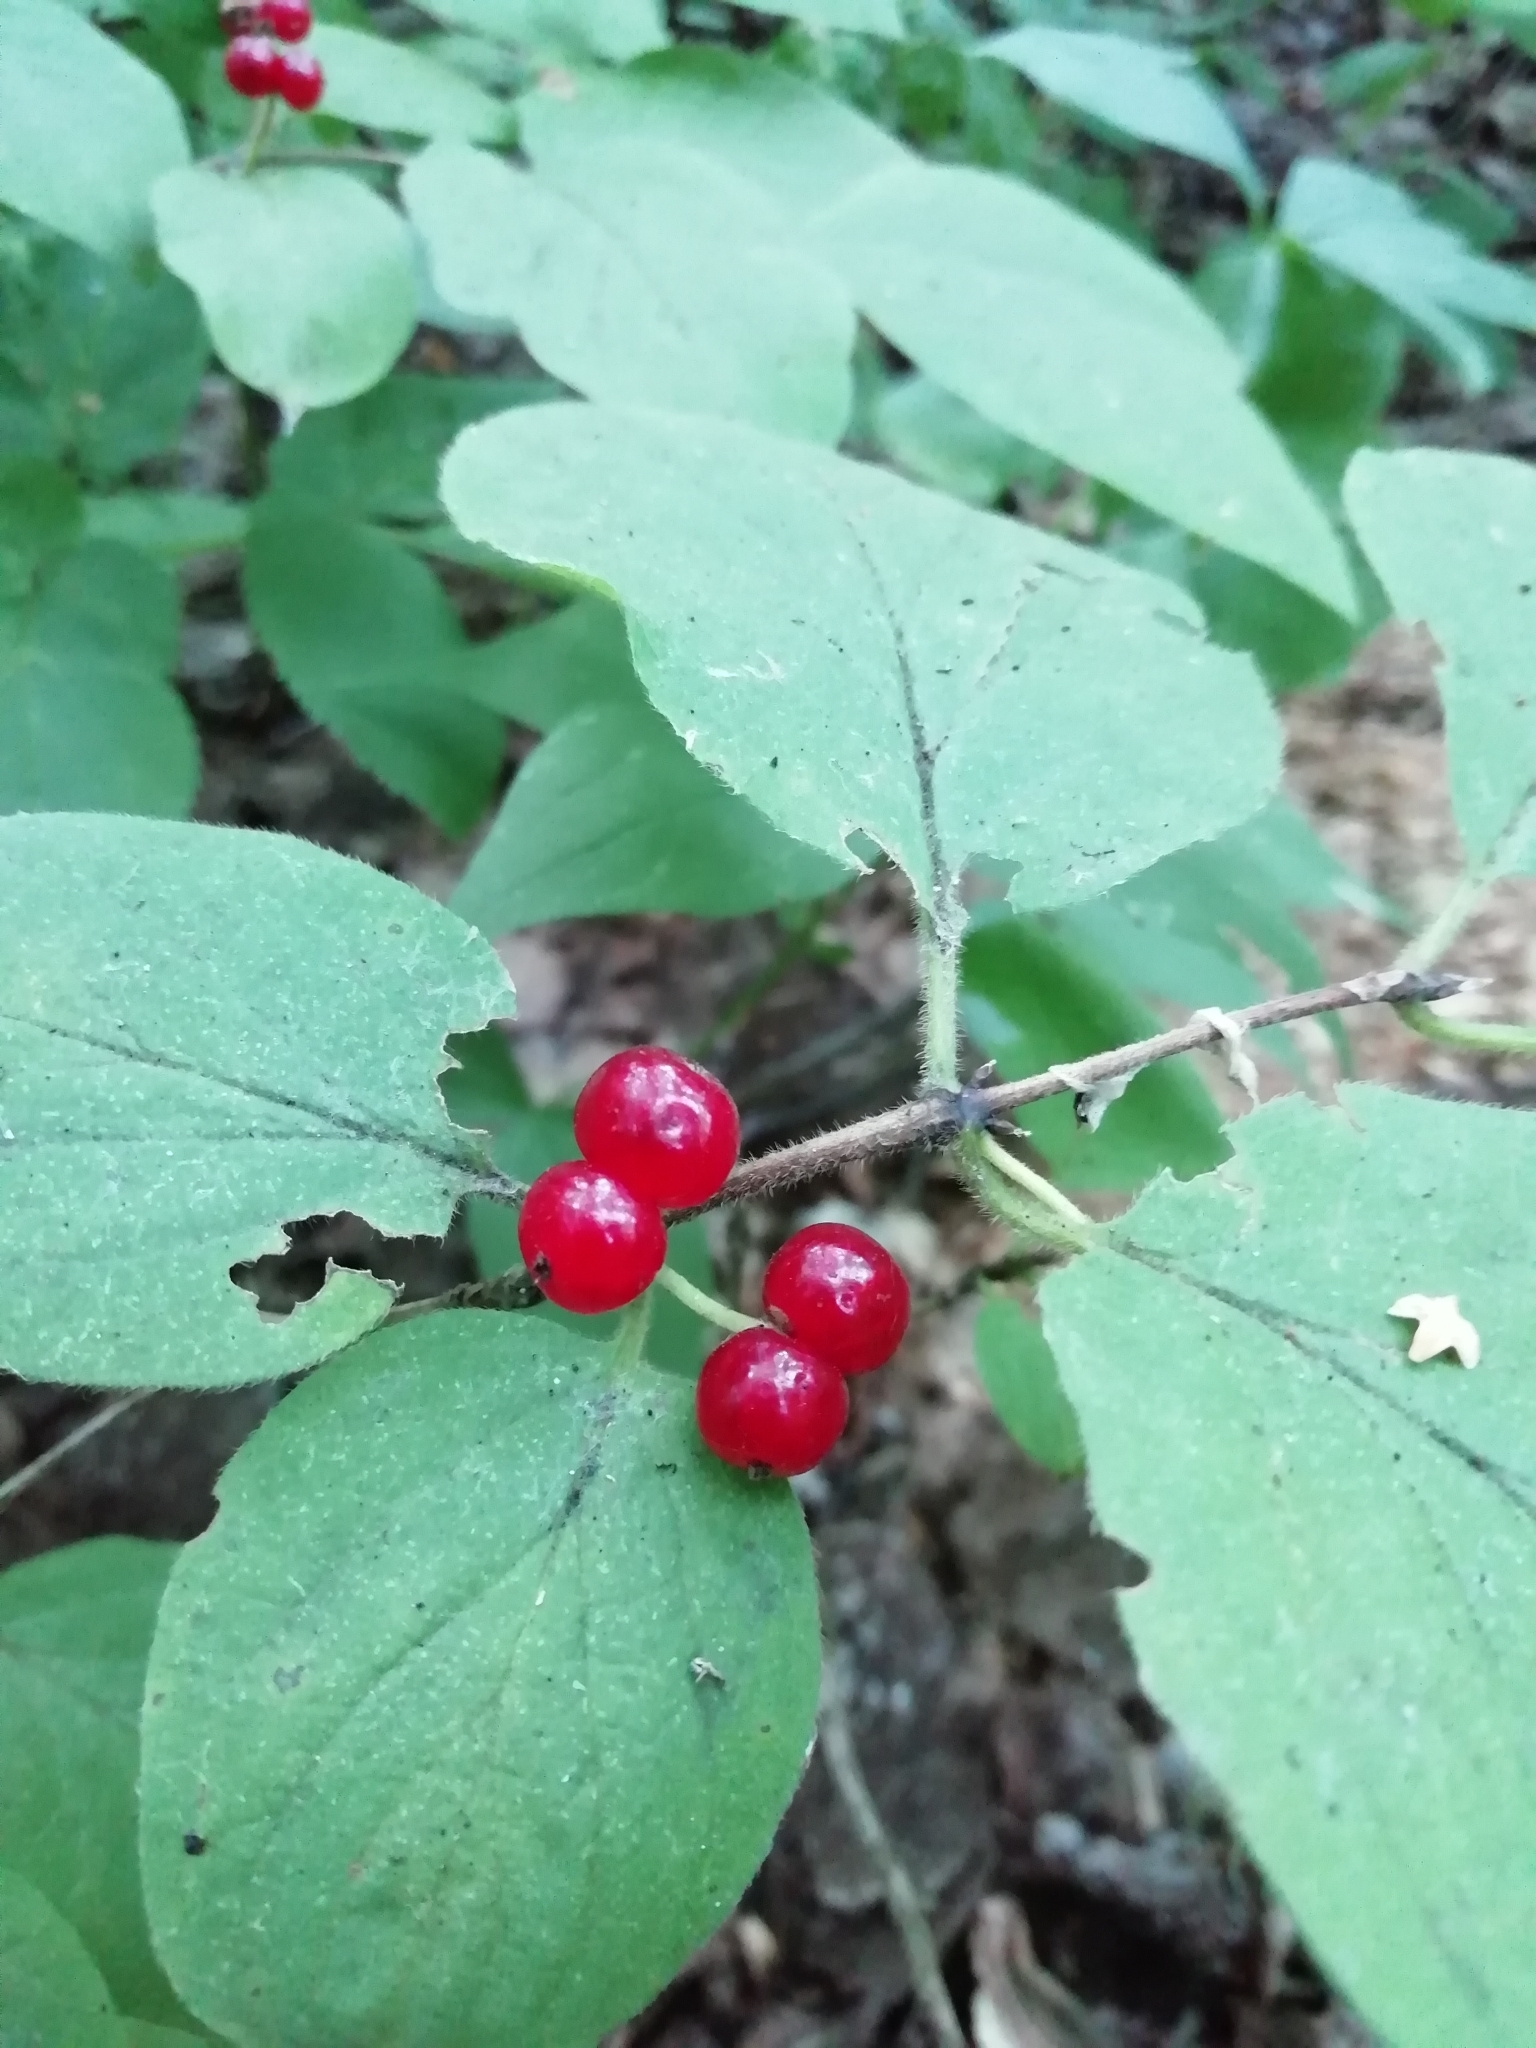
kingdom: Plantae
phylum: Tracheophyta
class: Magnoliopsida
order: Dipsacales
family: Caprifoliaceae
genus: Lonicera
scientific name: Lonicera xylosteum
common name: Fly honeysuckle
